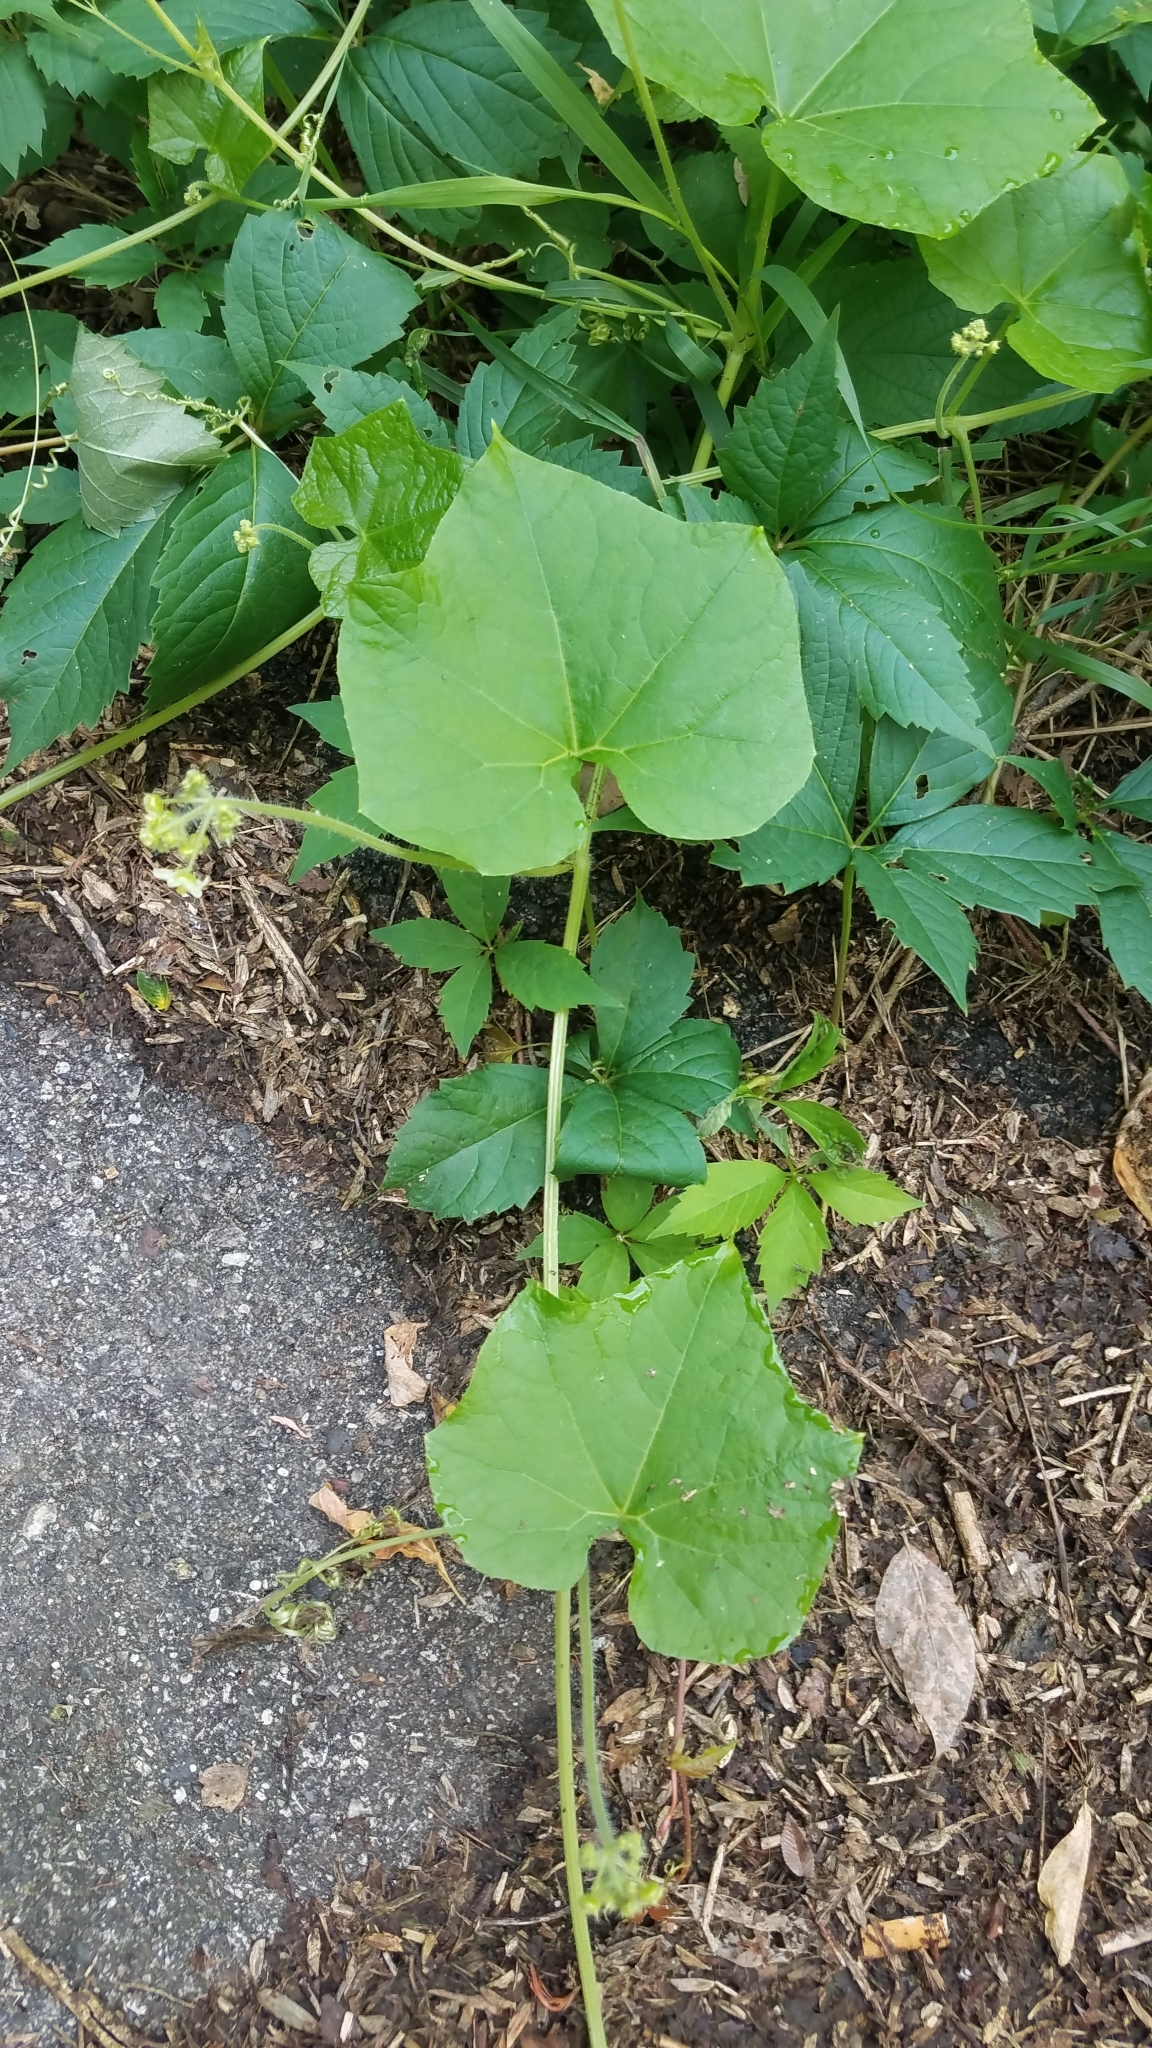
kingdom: Plantae
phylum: Tracheophyta
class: Magnoliopsida
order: Cucurbitales
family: Cucurbitaceae
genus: Sicyos
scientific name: Sicyos angulatus
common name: Angled burr cucumber
